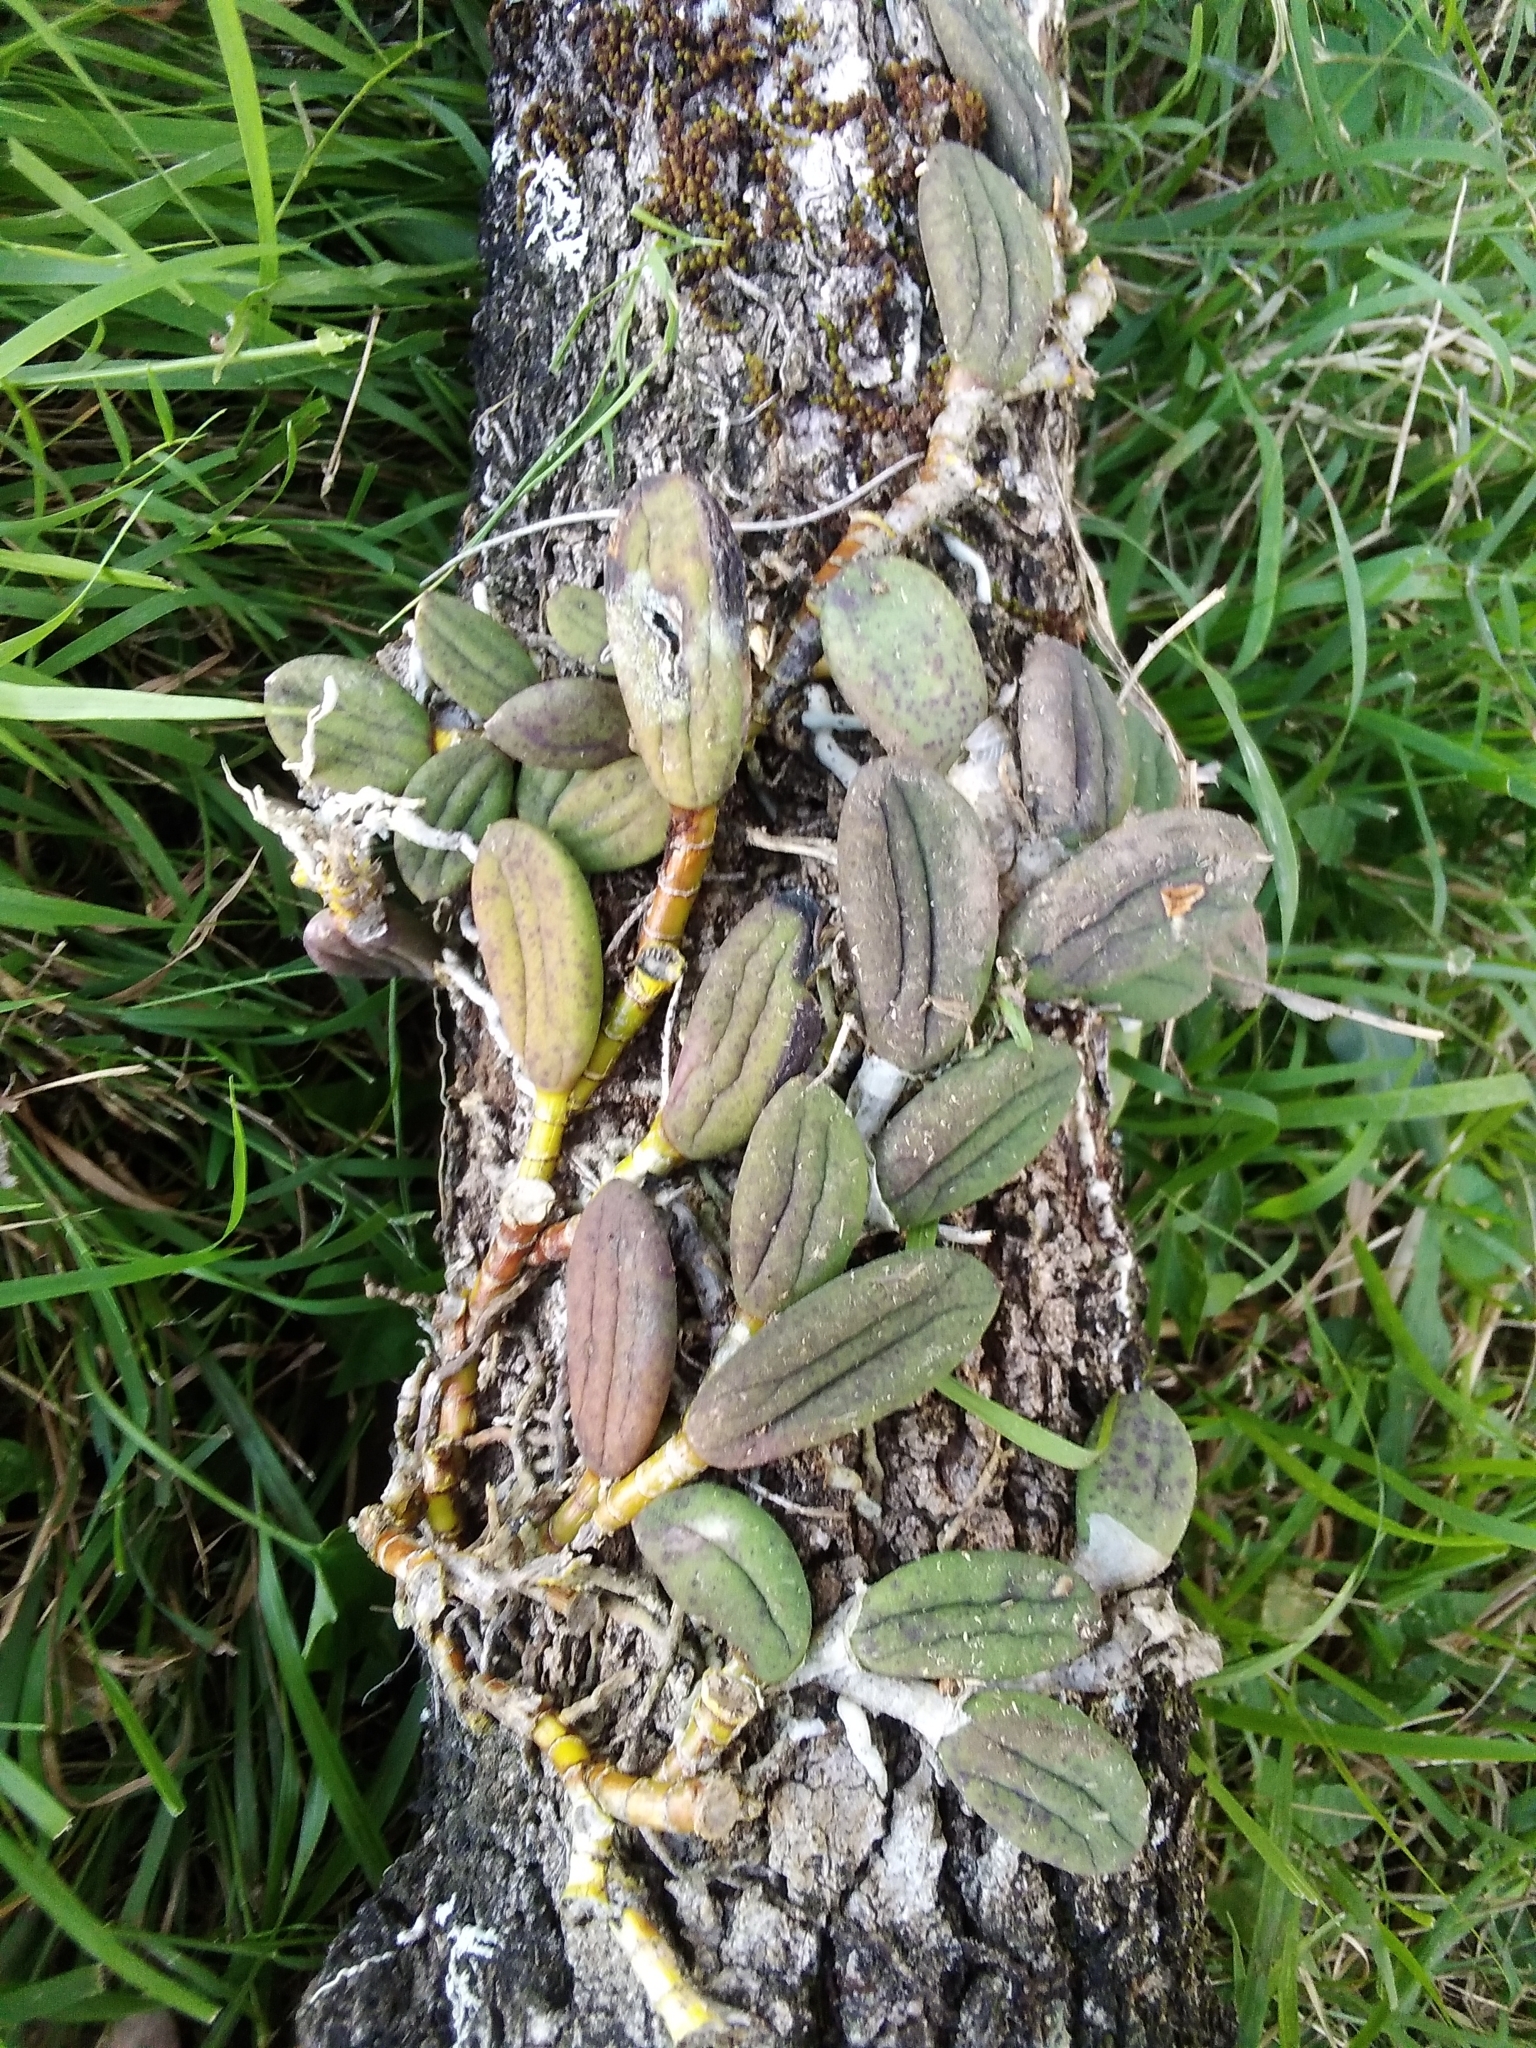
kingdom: Plantae
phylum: Tracheophyta
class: Liliopsida
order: Asparagales
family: Orchidaceae
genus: Dendrobium
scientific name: Dendrobium linguiforme
